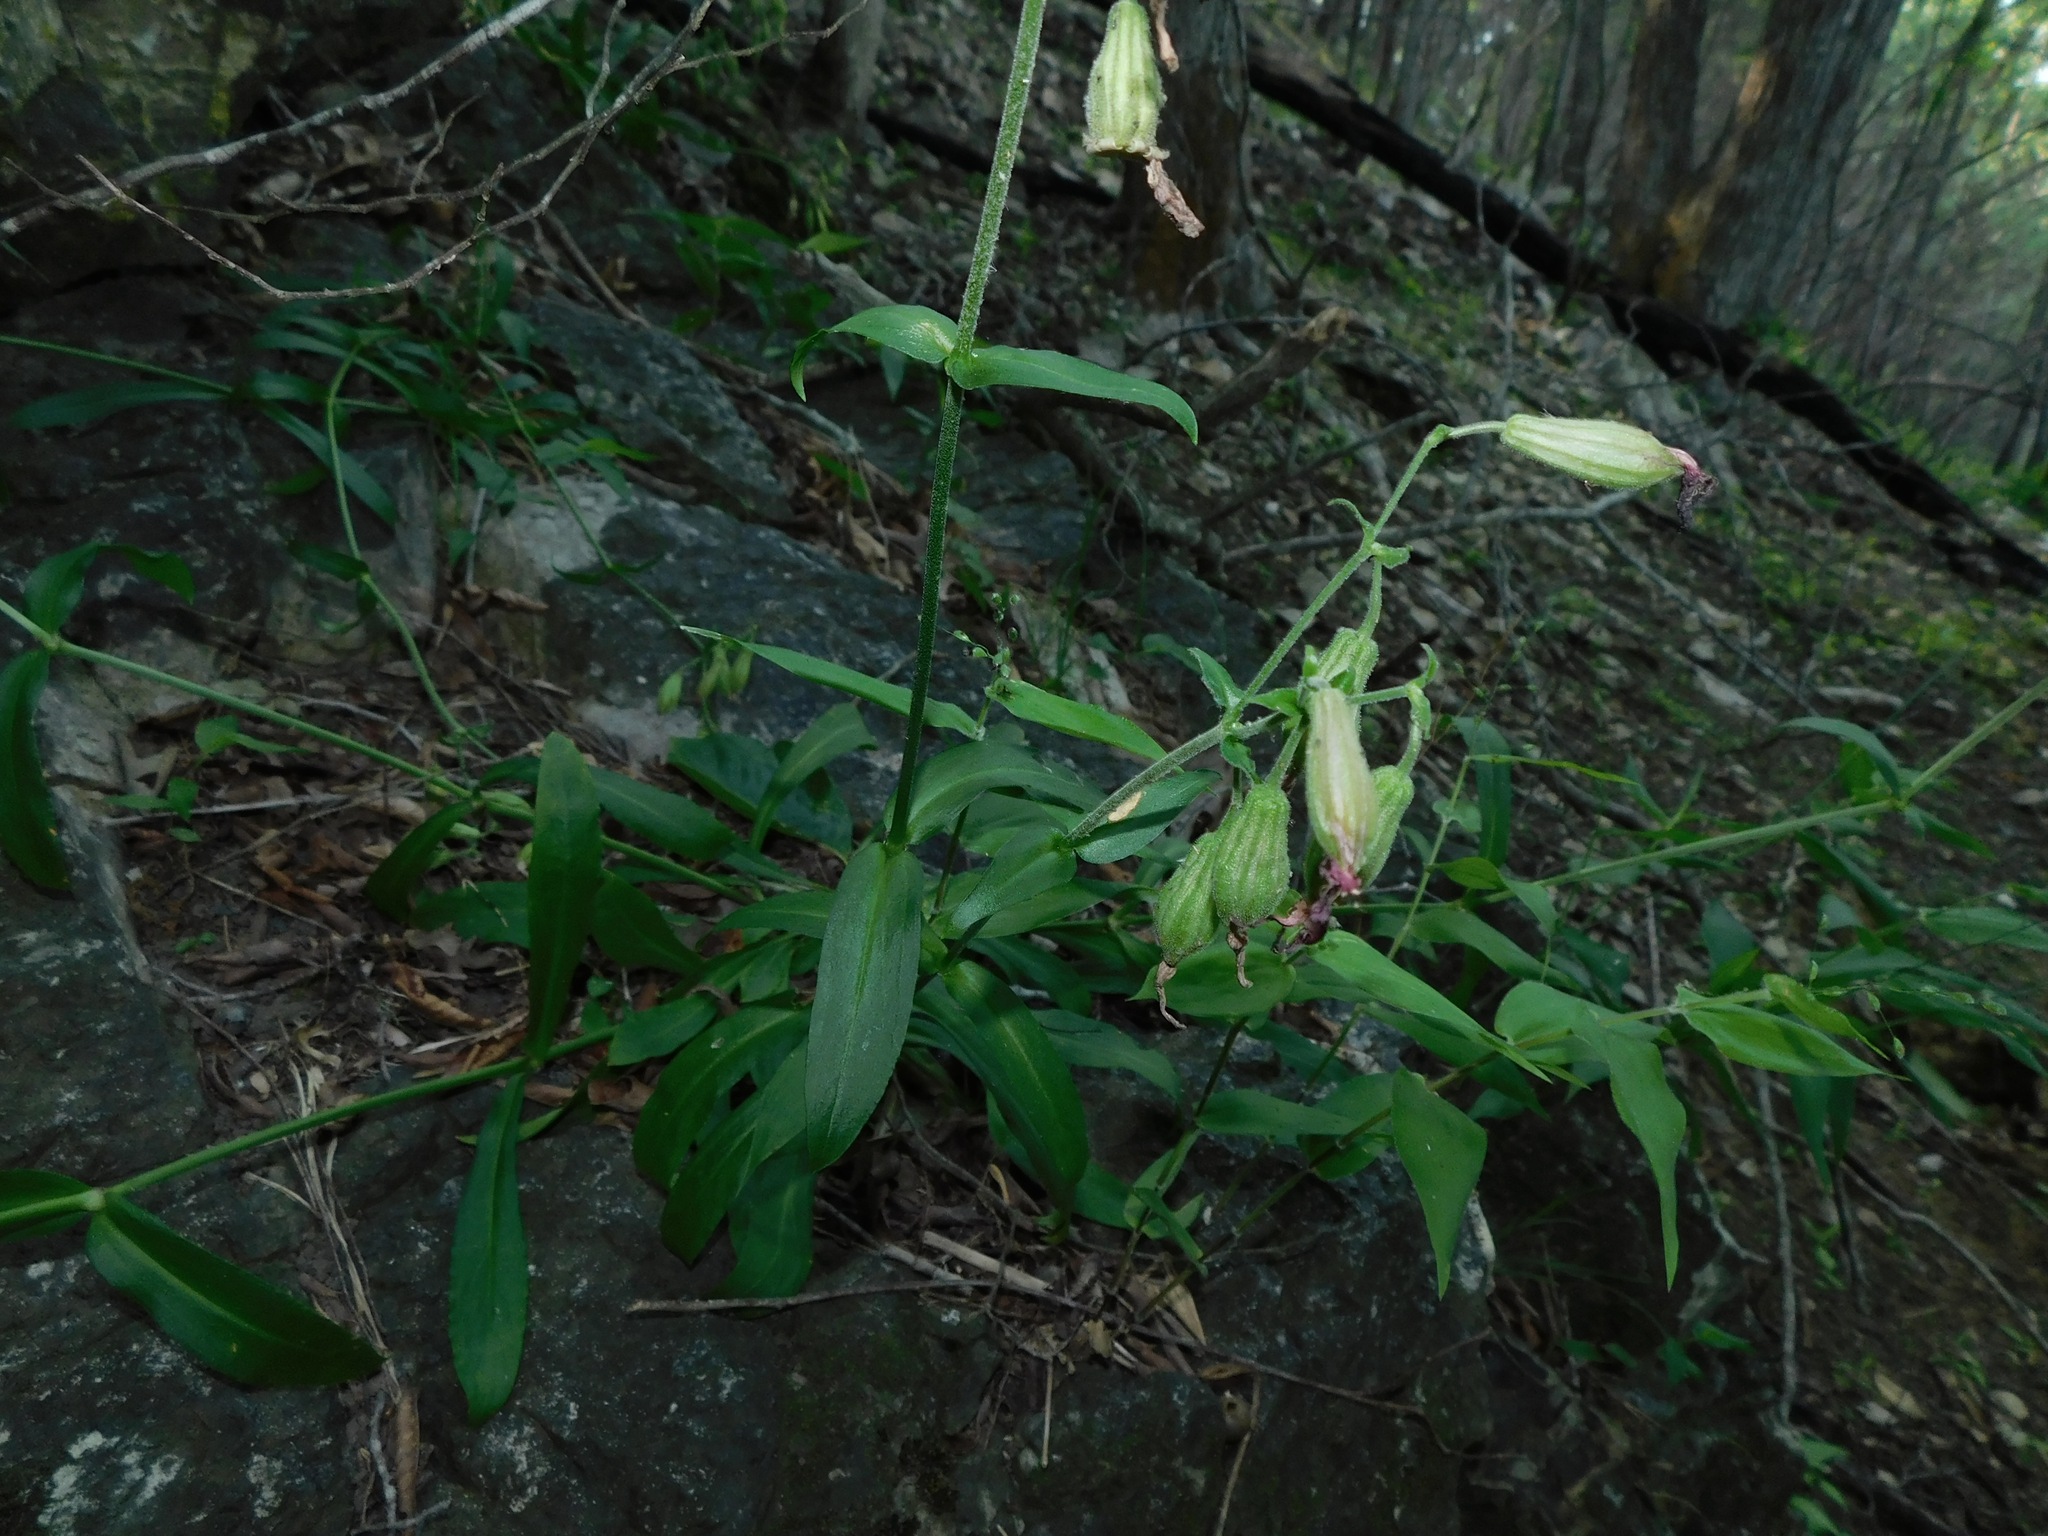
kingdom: Plantae
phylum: Tracheophyta
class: Magnoliopsida
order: Caryophyllales
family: Caryophyllaceae
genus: Silene
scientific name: Silene virginica
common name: Fire-pink
